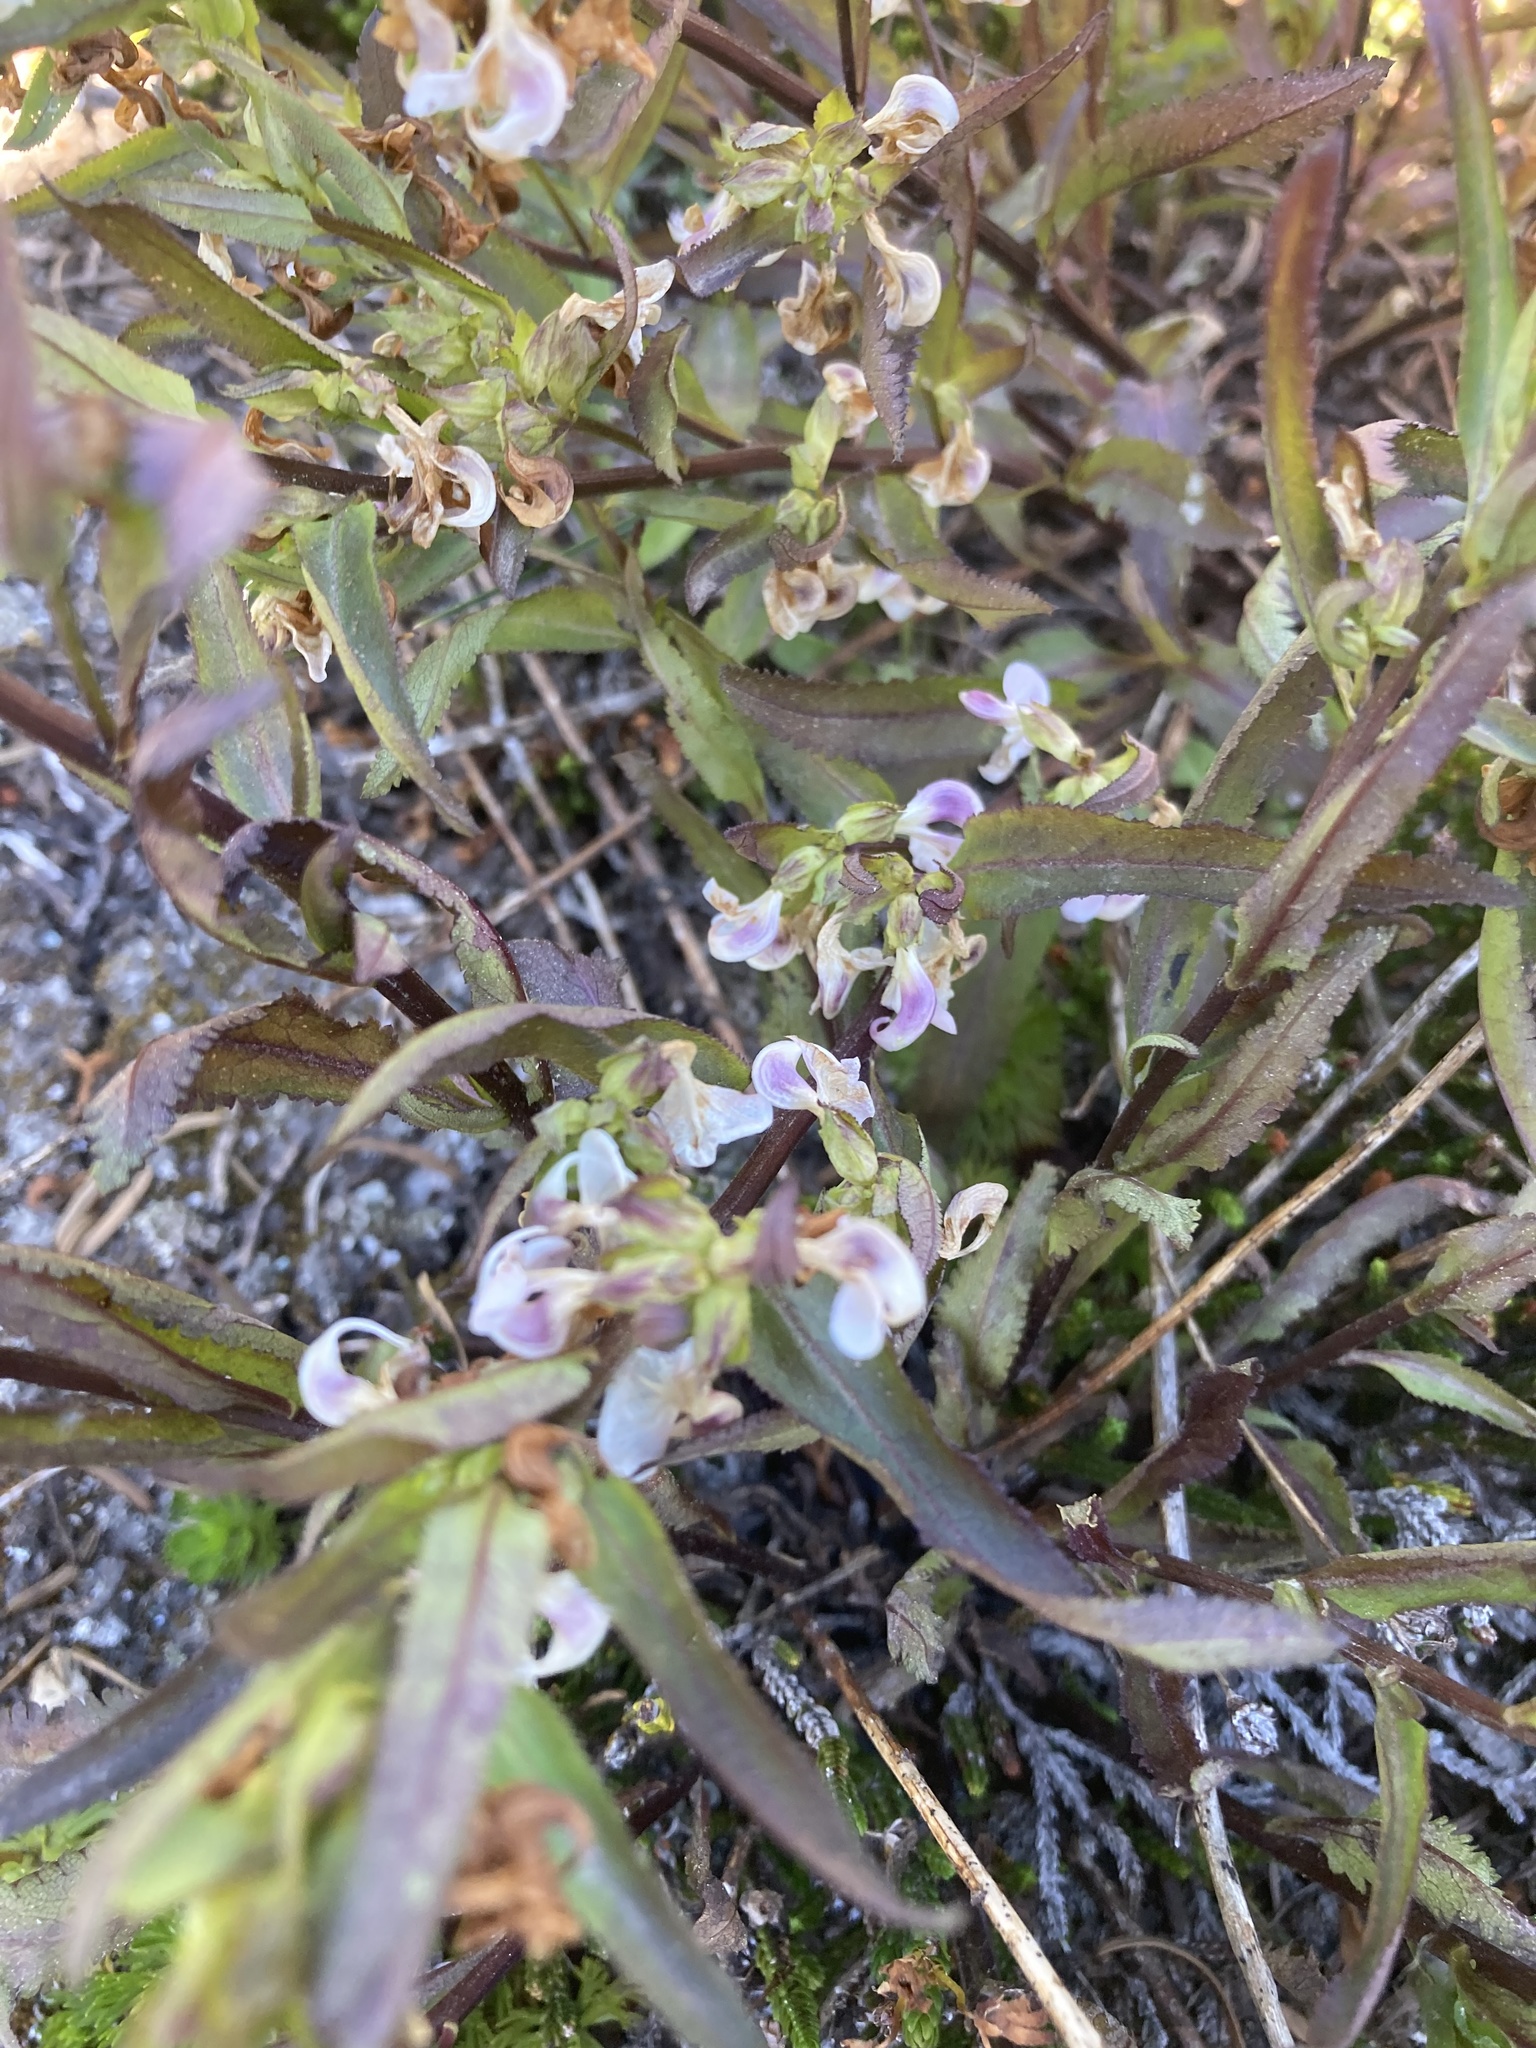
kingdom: Plantae
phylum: Tracheophyta
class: Magnoliopsida
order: Lamiales
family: Orobanchaceae
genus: Pedicularis
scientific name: Pedicularis racemosa
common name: Leafy lousewort
